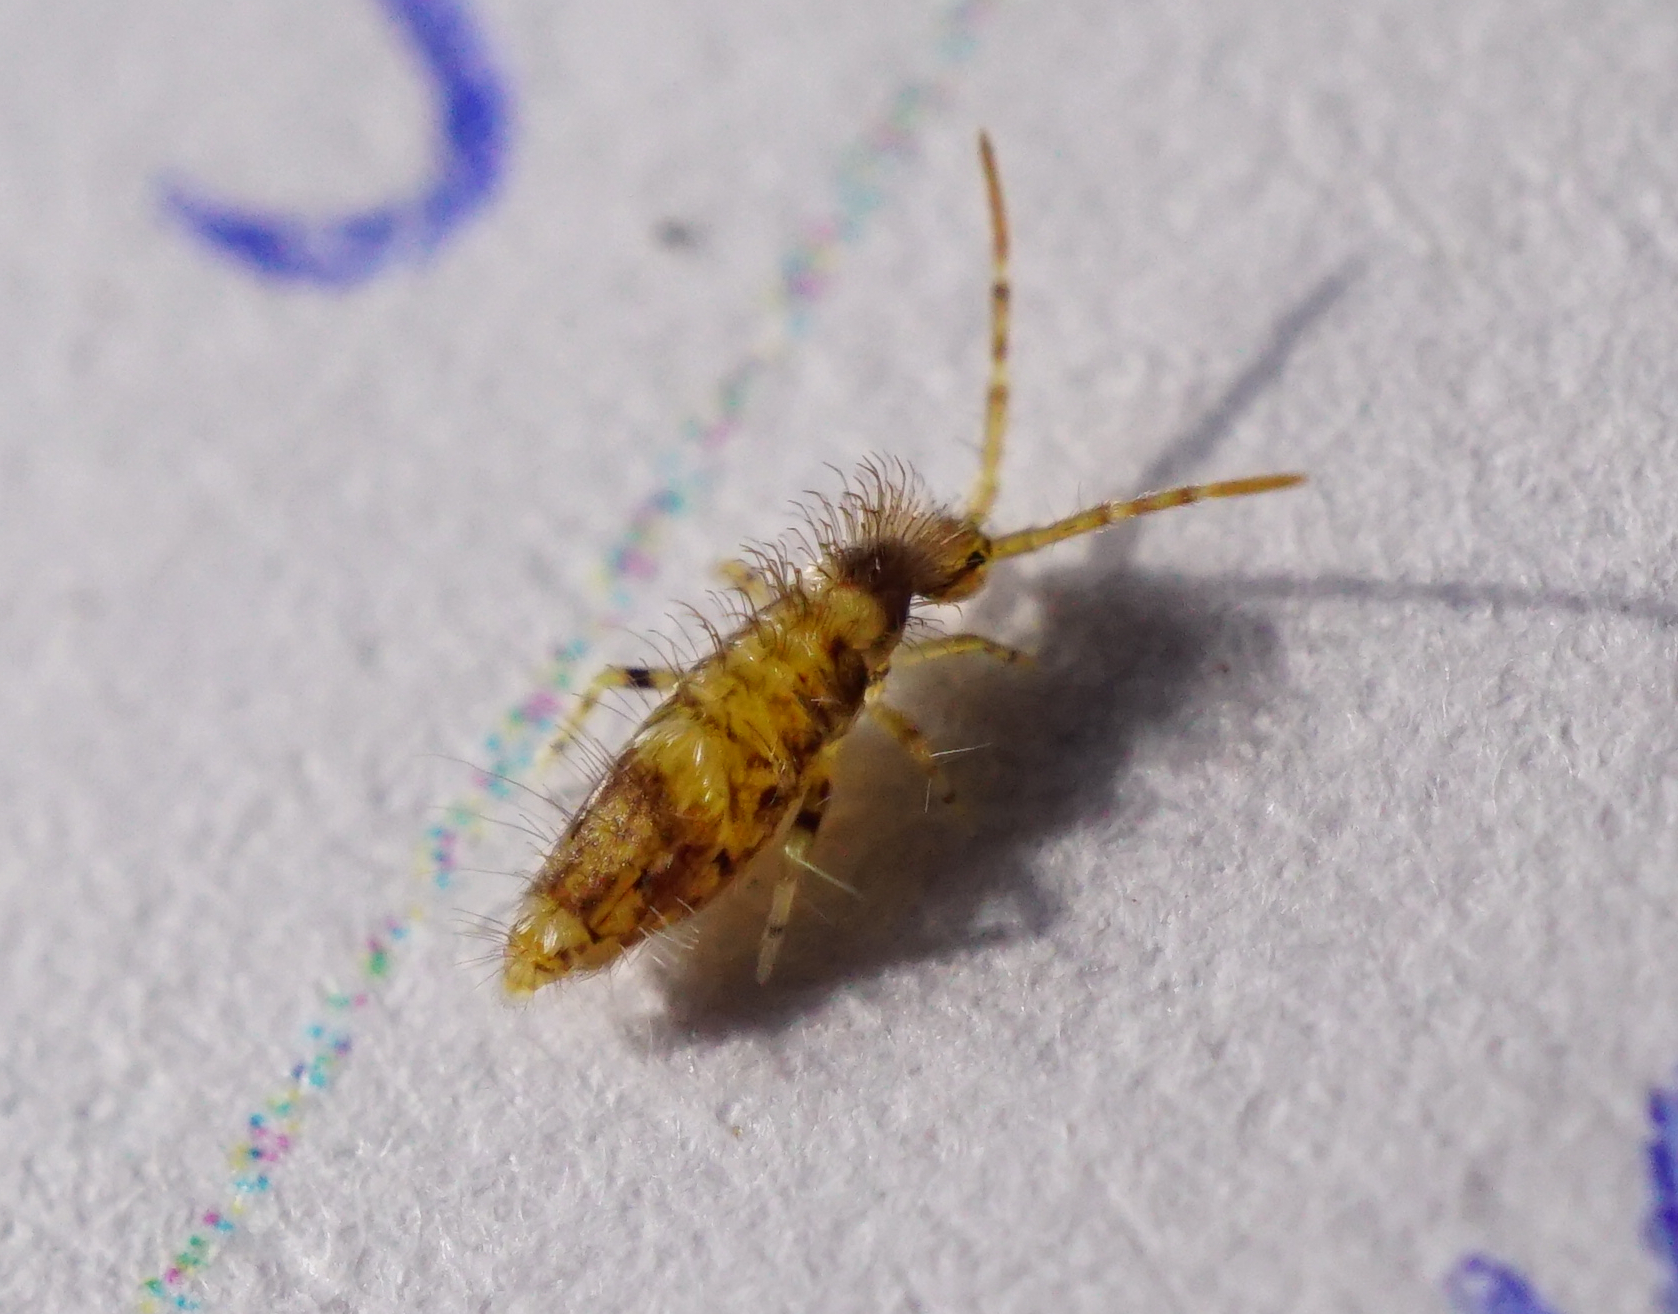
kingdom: Animalia
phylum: Arthropoda
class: Collembola
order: Entomobryomorpha
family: Entomobryidae
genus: Entomobrya
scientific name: Entomobrya dorsalis
